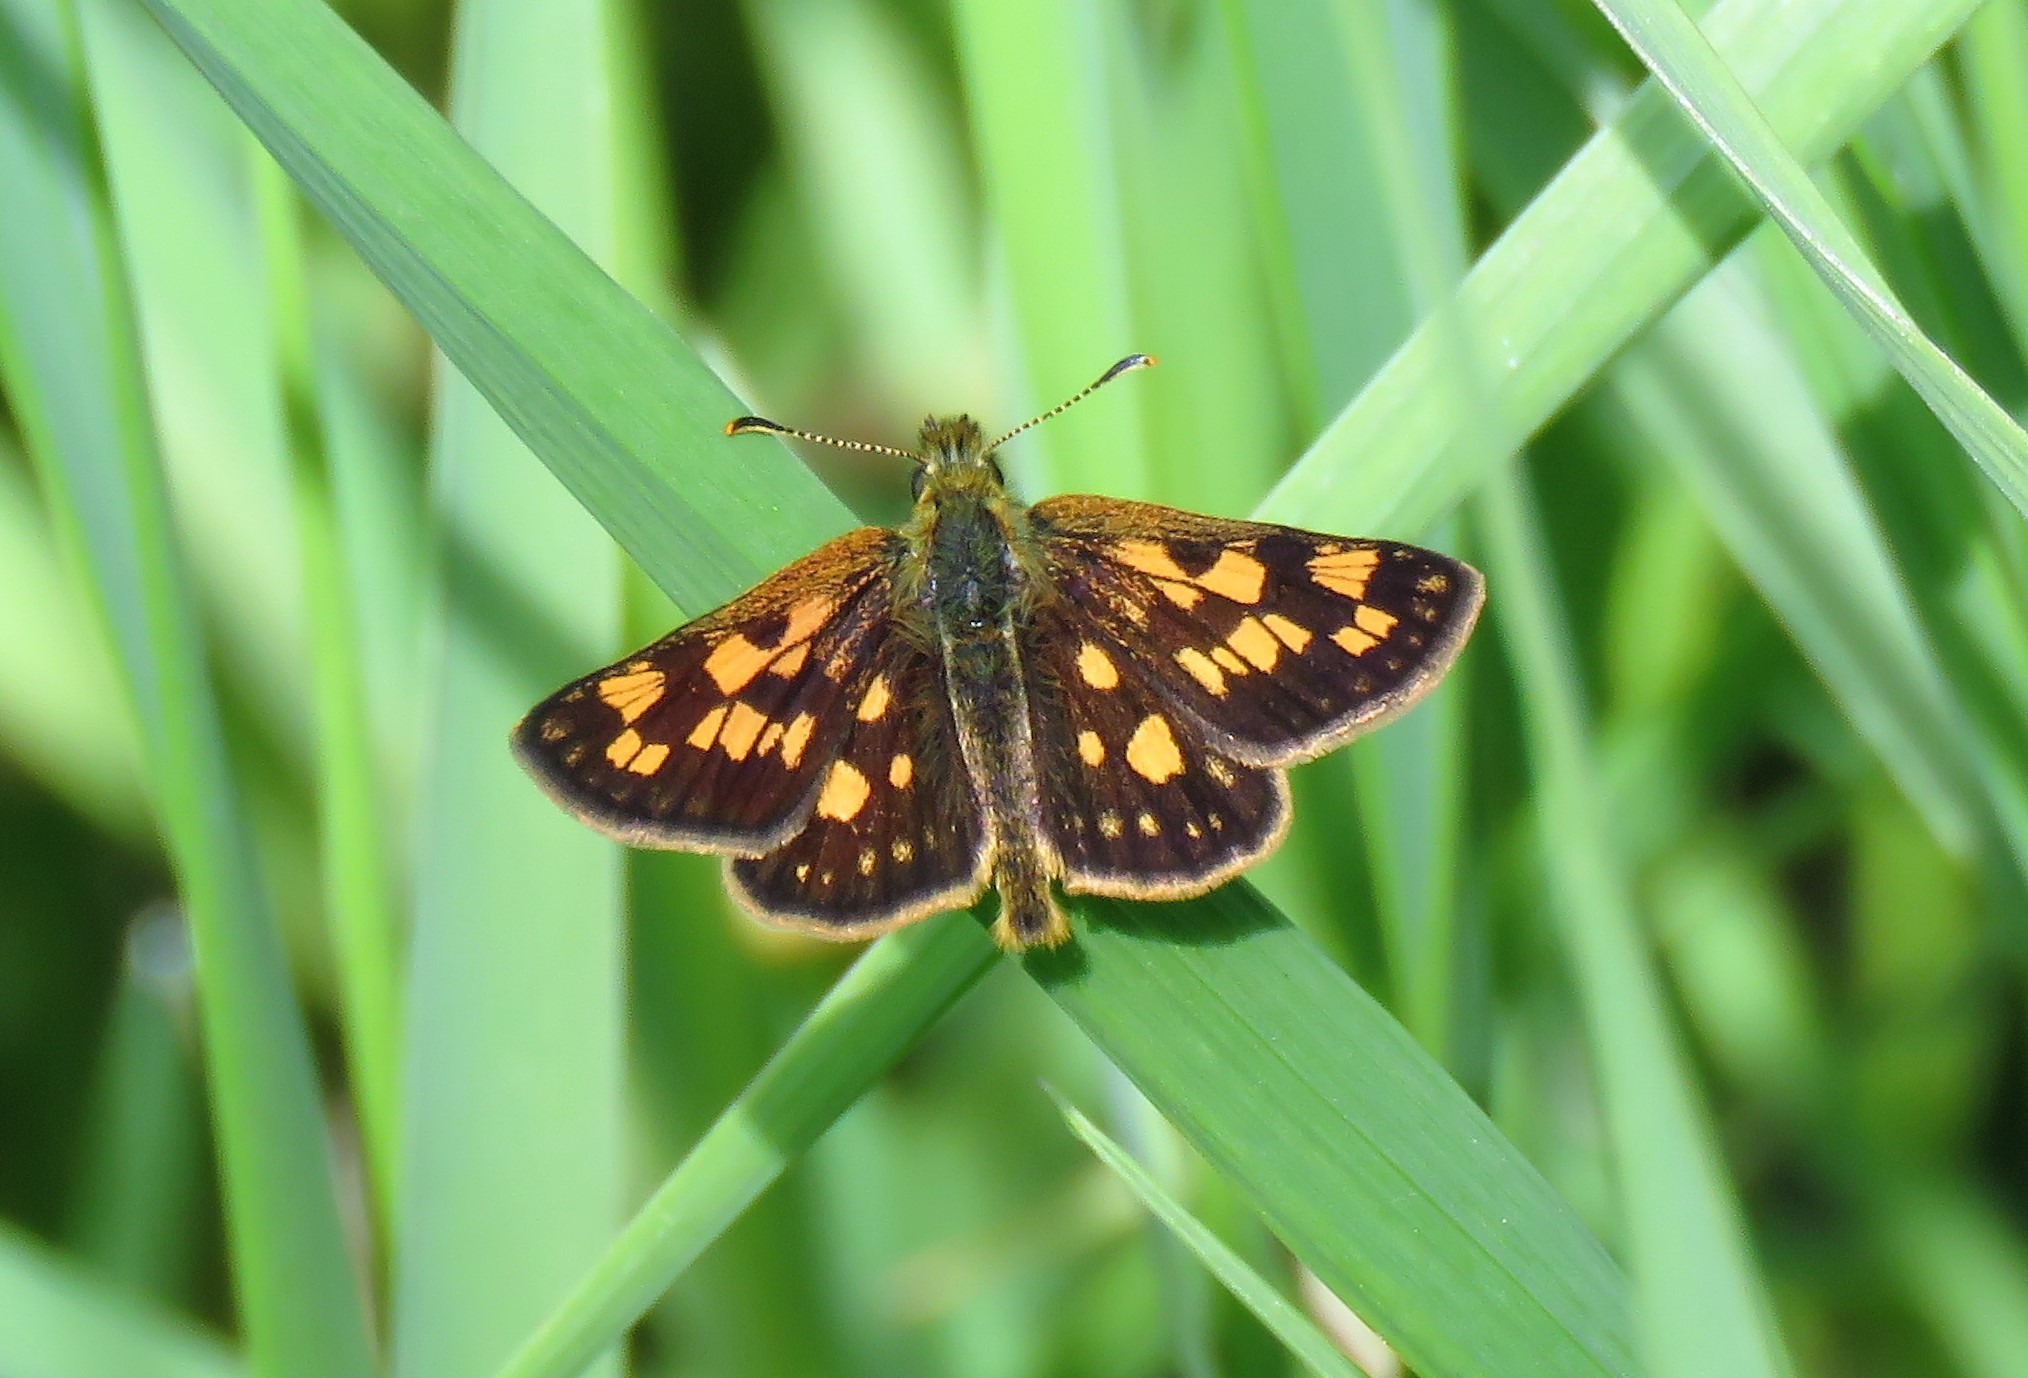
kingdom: Animalia
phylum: Arthropoda
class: Insecta
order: Lepidoptera
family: Hesperiidae
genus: Carterocephalus
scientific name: Carterocephalus mandan
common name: Arctic skipperling
